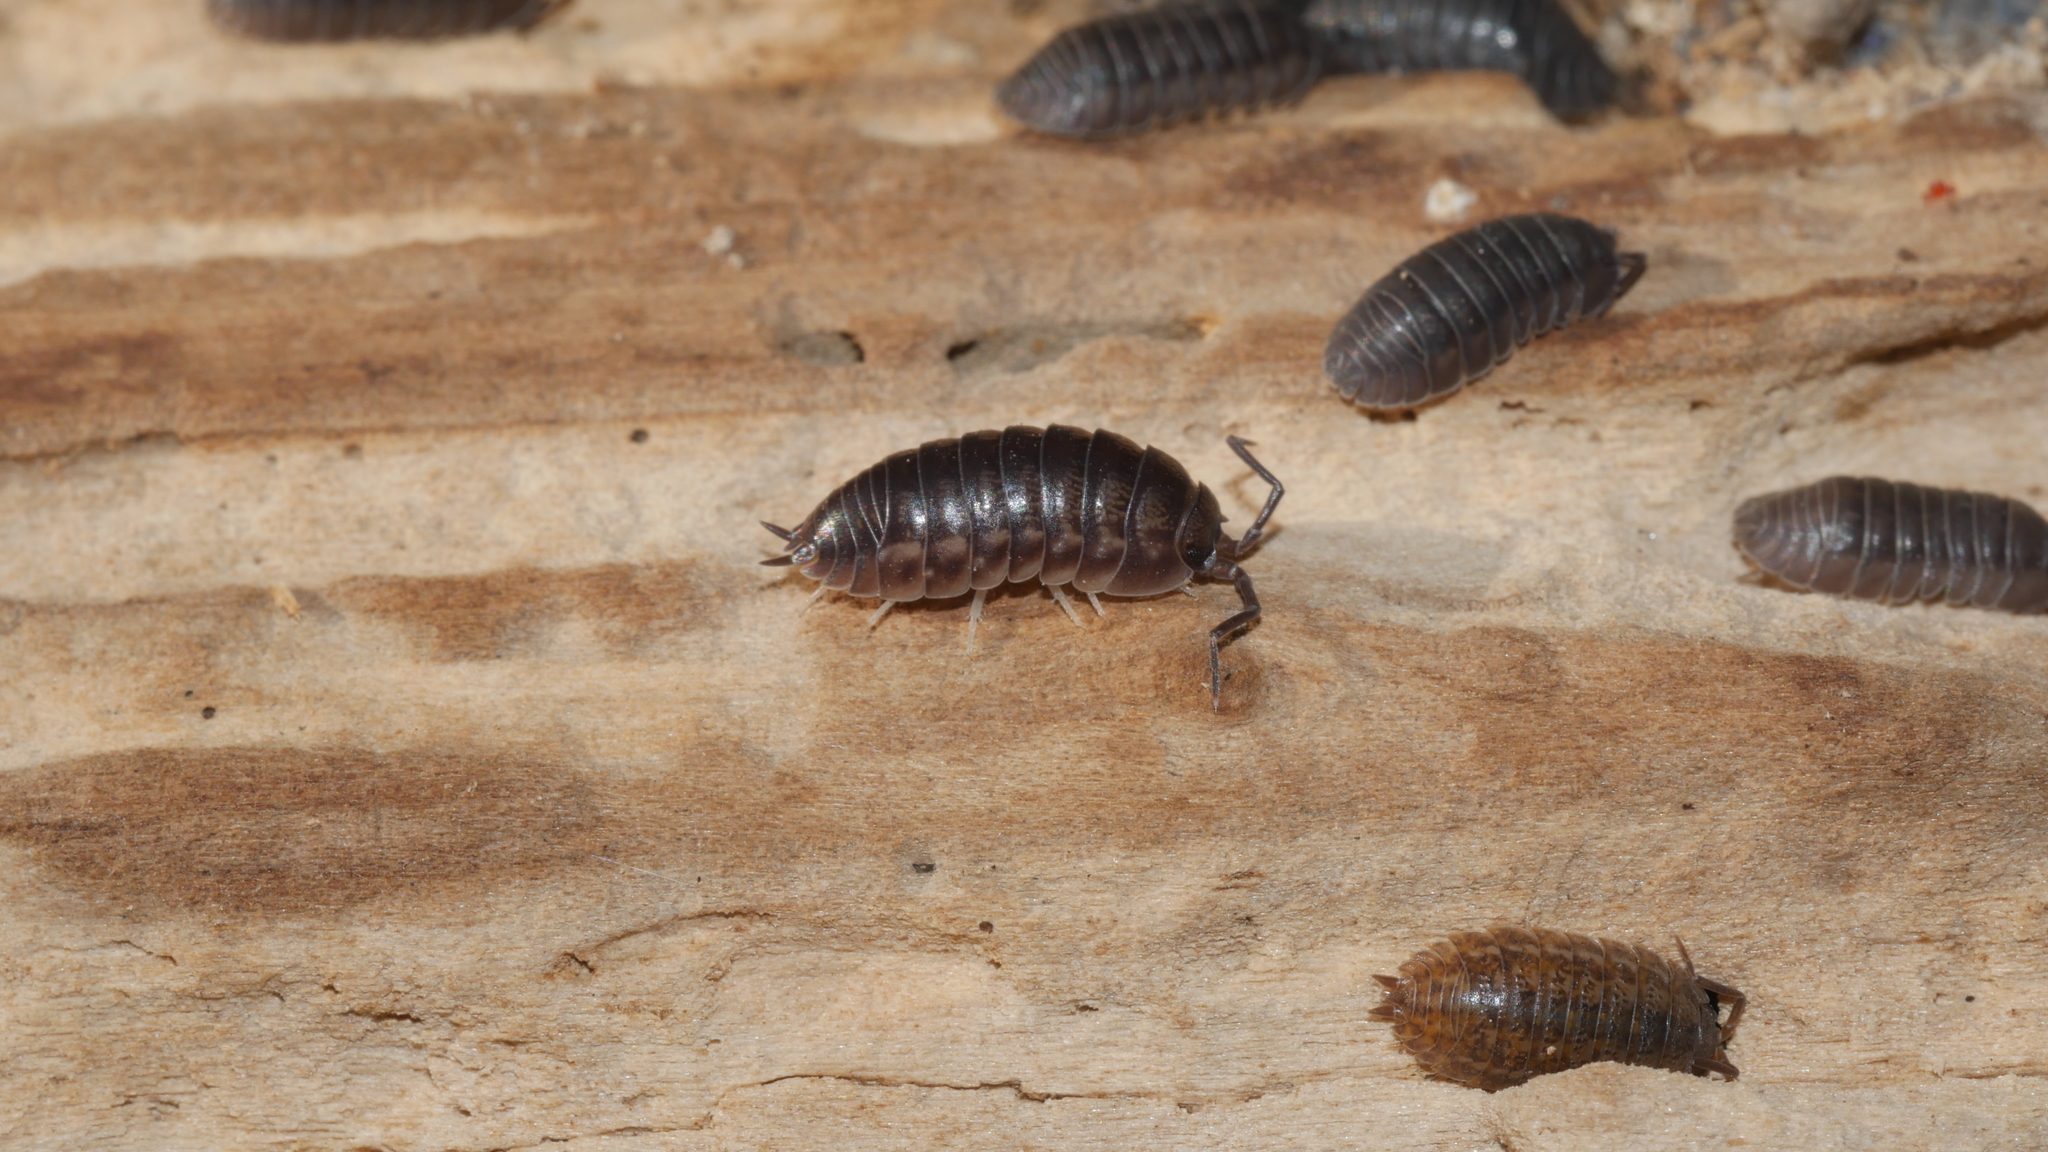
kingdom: Animalia
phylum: Arthropoda
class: Malacostraca
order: Isopoda
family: Cylisticidae
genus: Cylisticus
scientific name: Cylisticus convexus
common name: Curly woodlouse
